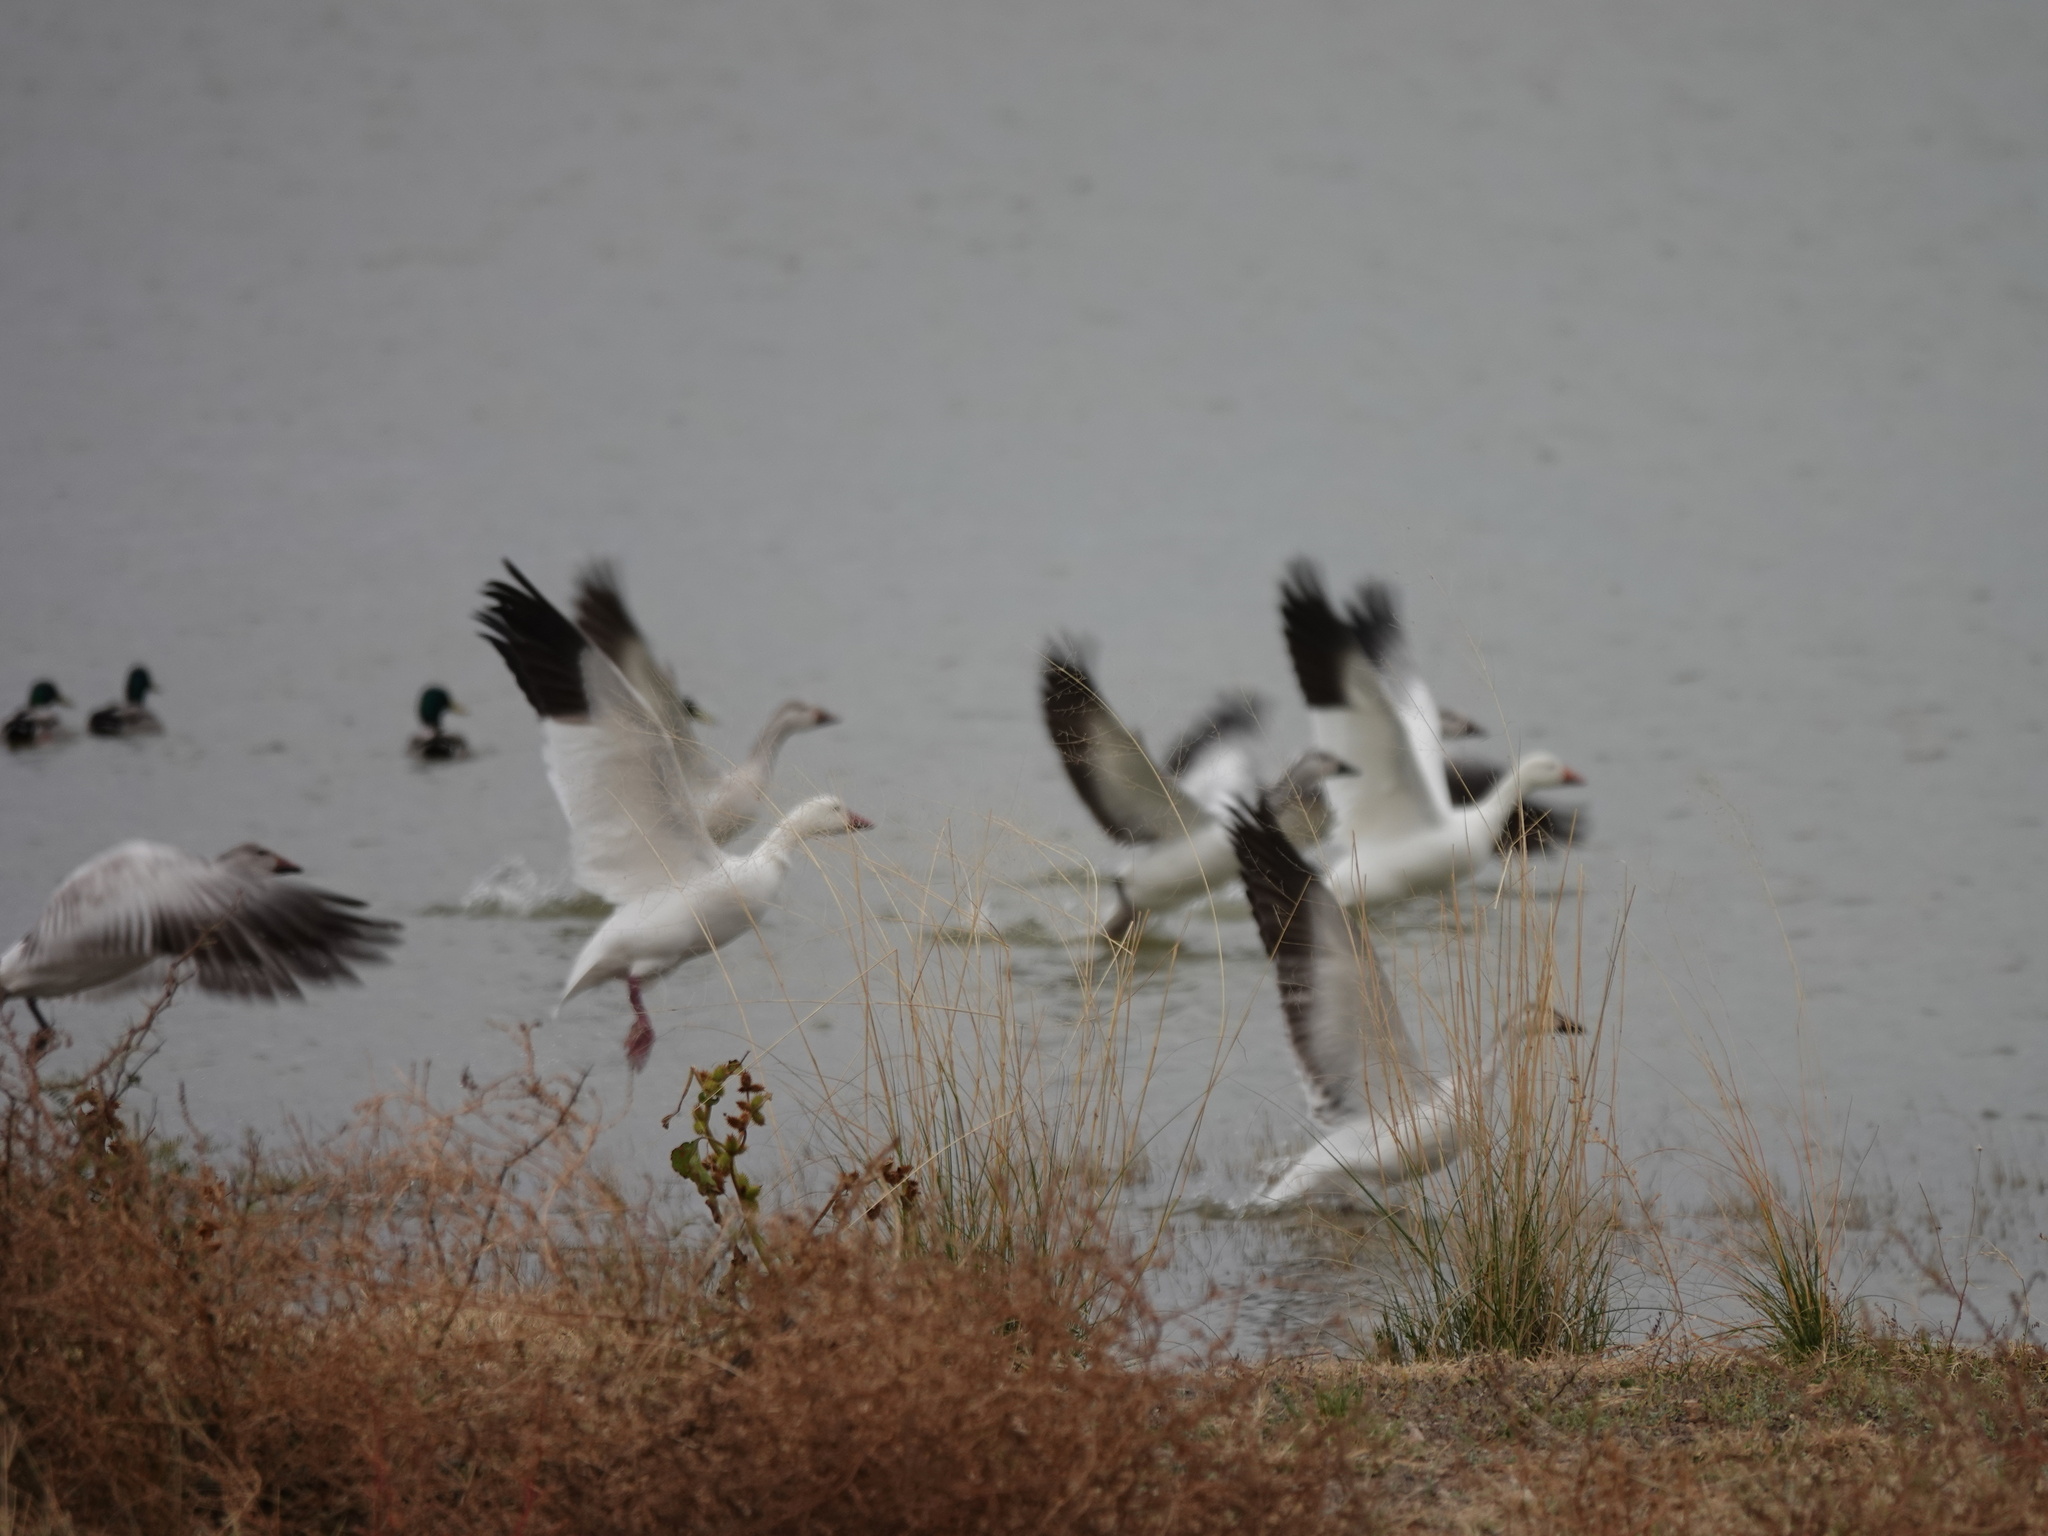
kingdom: Animalia
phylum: Chordata
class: Aves
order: Anseriformes
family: Anatidae
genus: Anser
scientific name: Anser rossii
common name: Ross's goose
